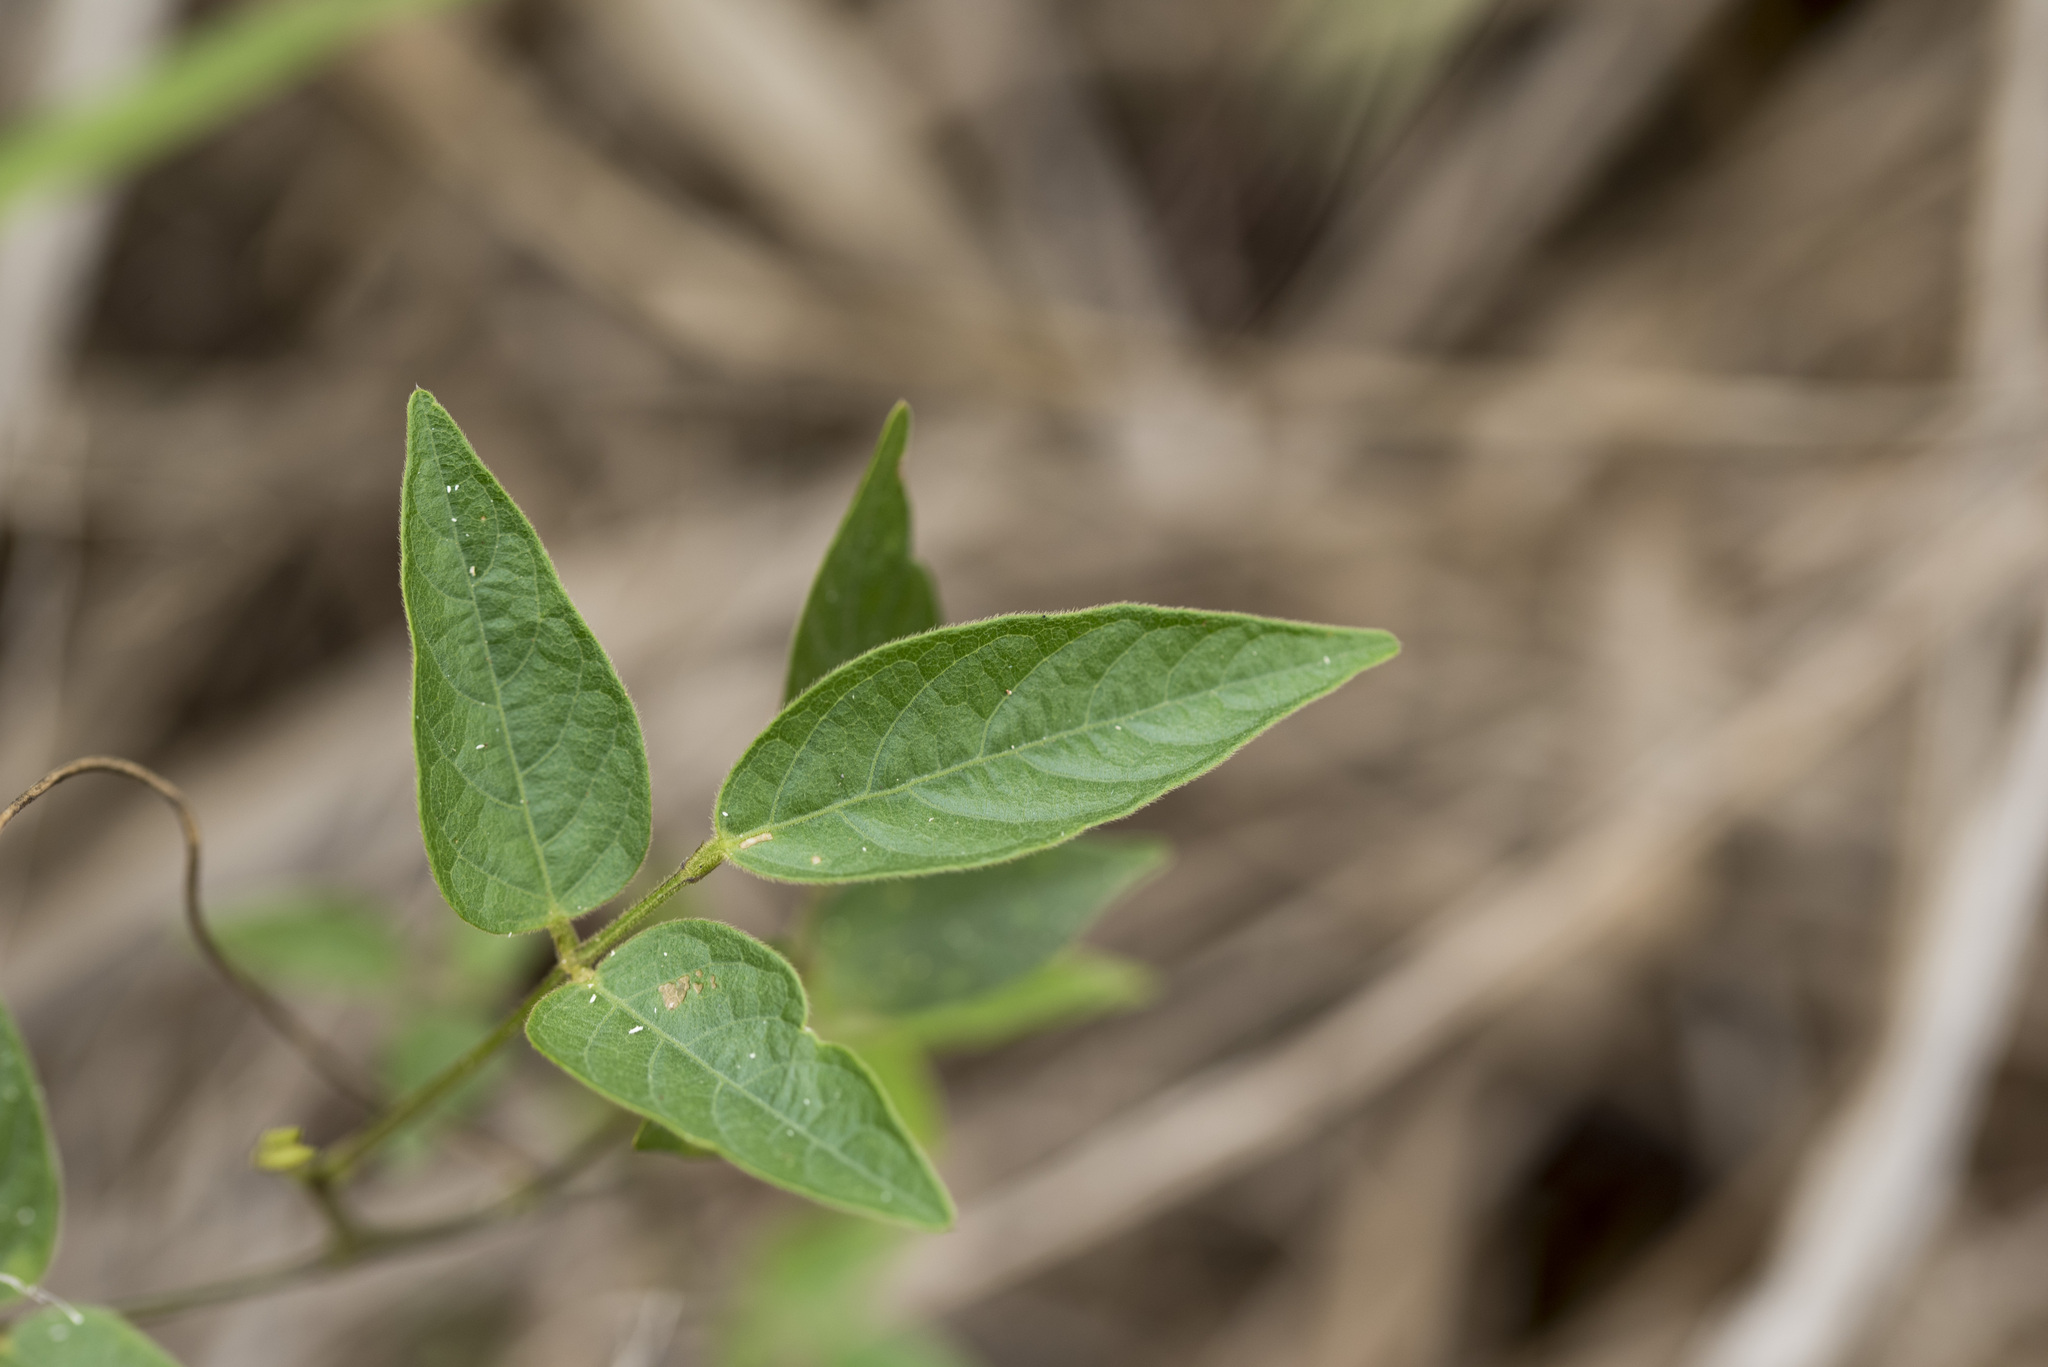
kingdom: Plantae
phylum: Tracheophyta
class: Magnoliopsida
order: Fabales
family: Fabaceae
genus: Centrosema
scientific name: Centrosema pubescens
